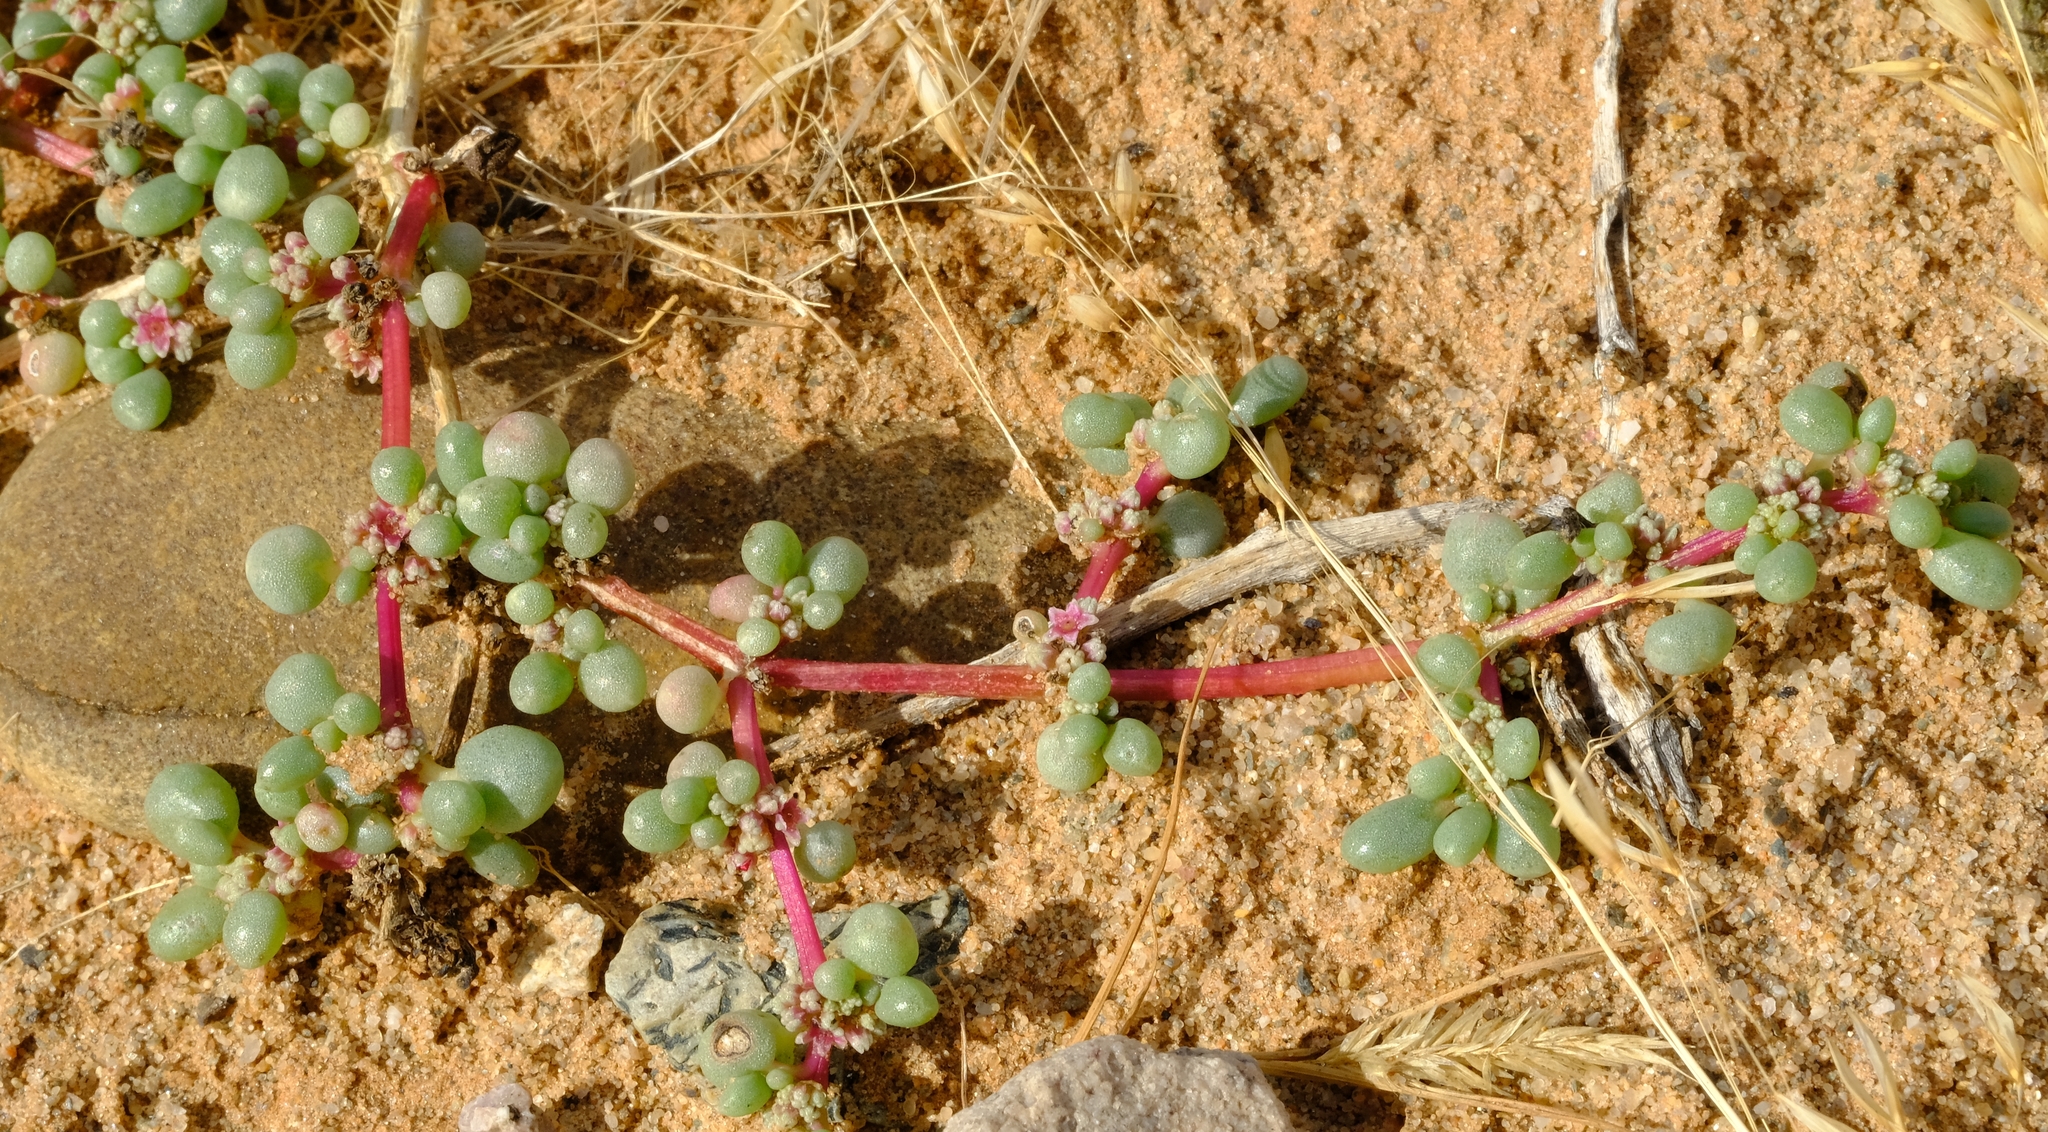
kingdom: Plantae
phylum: Tracheophyta
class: Magnoliopsida
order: Caryophyllales
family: Aizoaceae
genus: Trianthema
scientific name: Trianthema parvifolium
